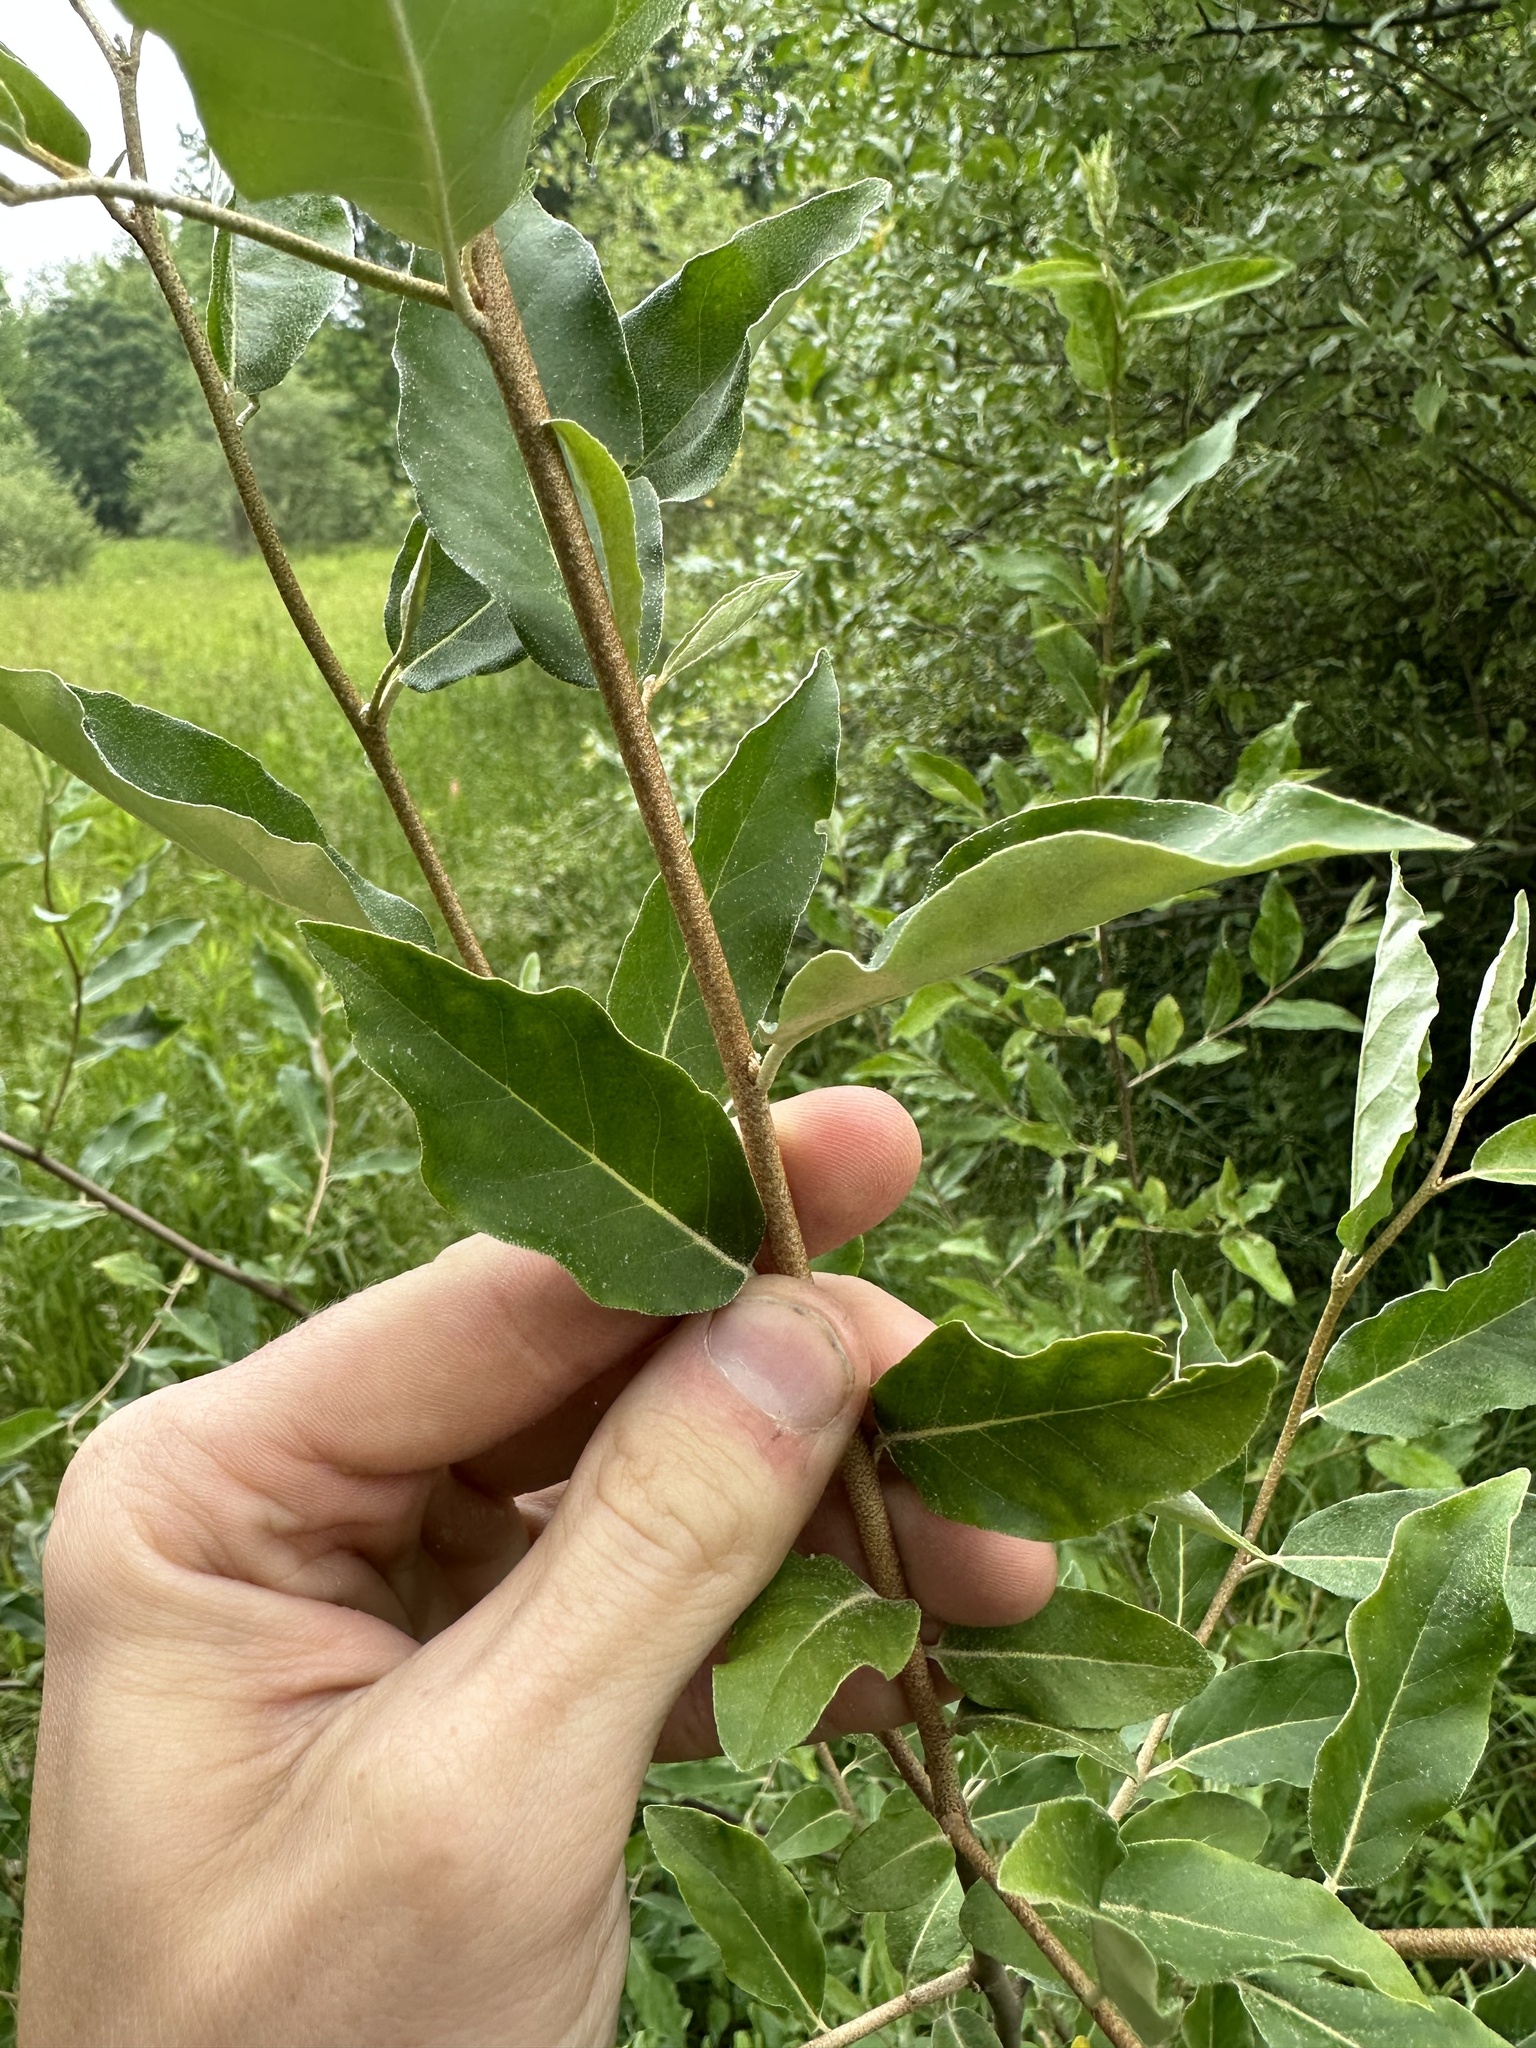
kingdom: Plantae
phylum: Tracheophyta
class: Magnoliopsida
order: Rosales
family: Elaeagnaceae
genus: Elaeagnus
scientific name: Elaeagnus umbellata
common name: Autumn olive
